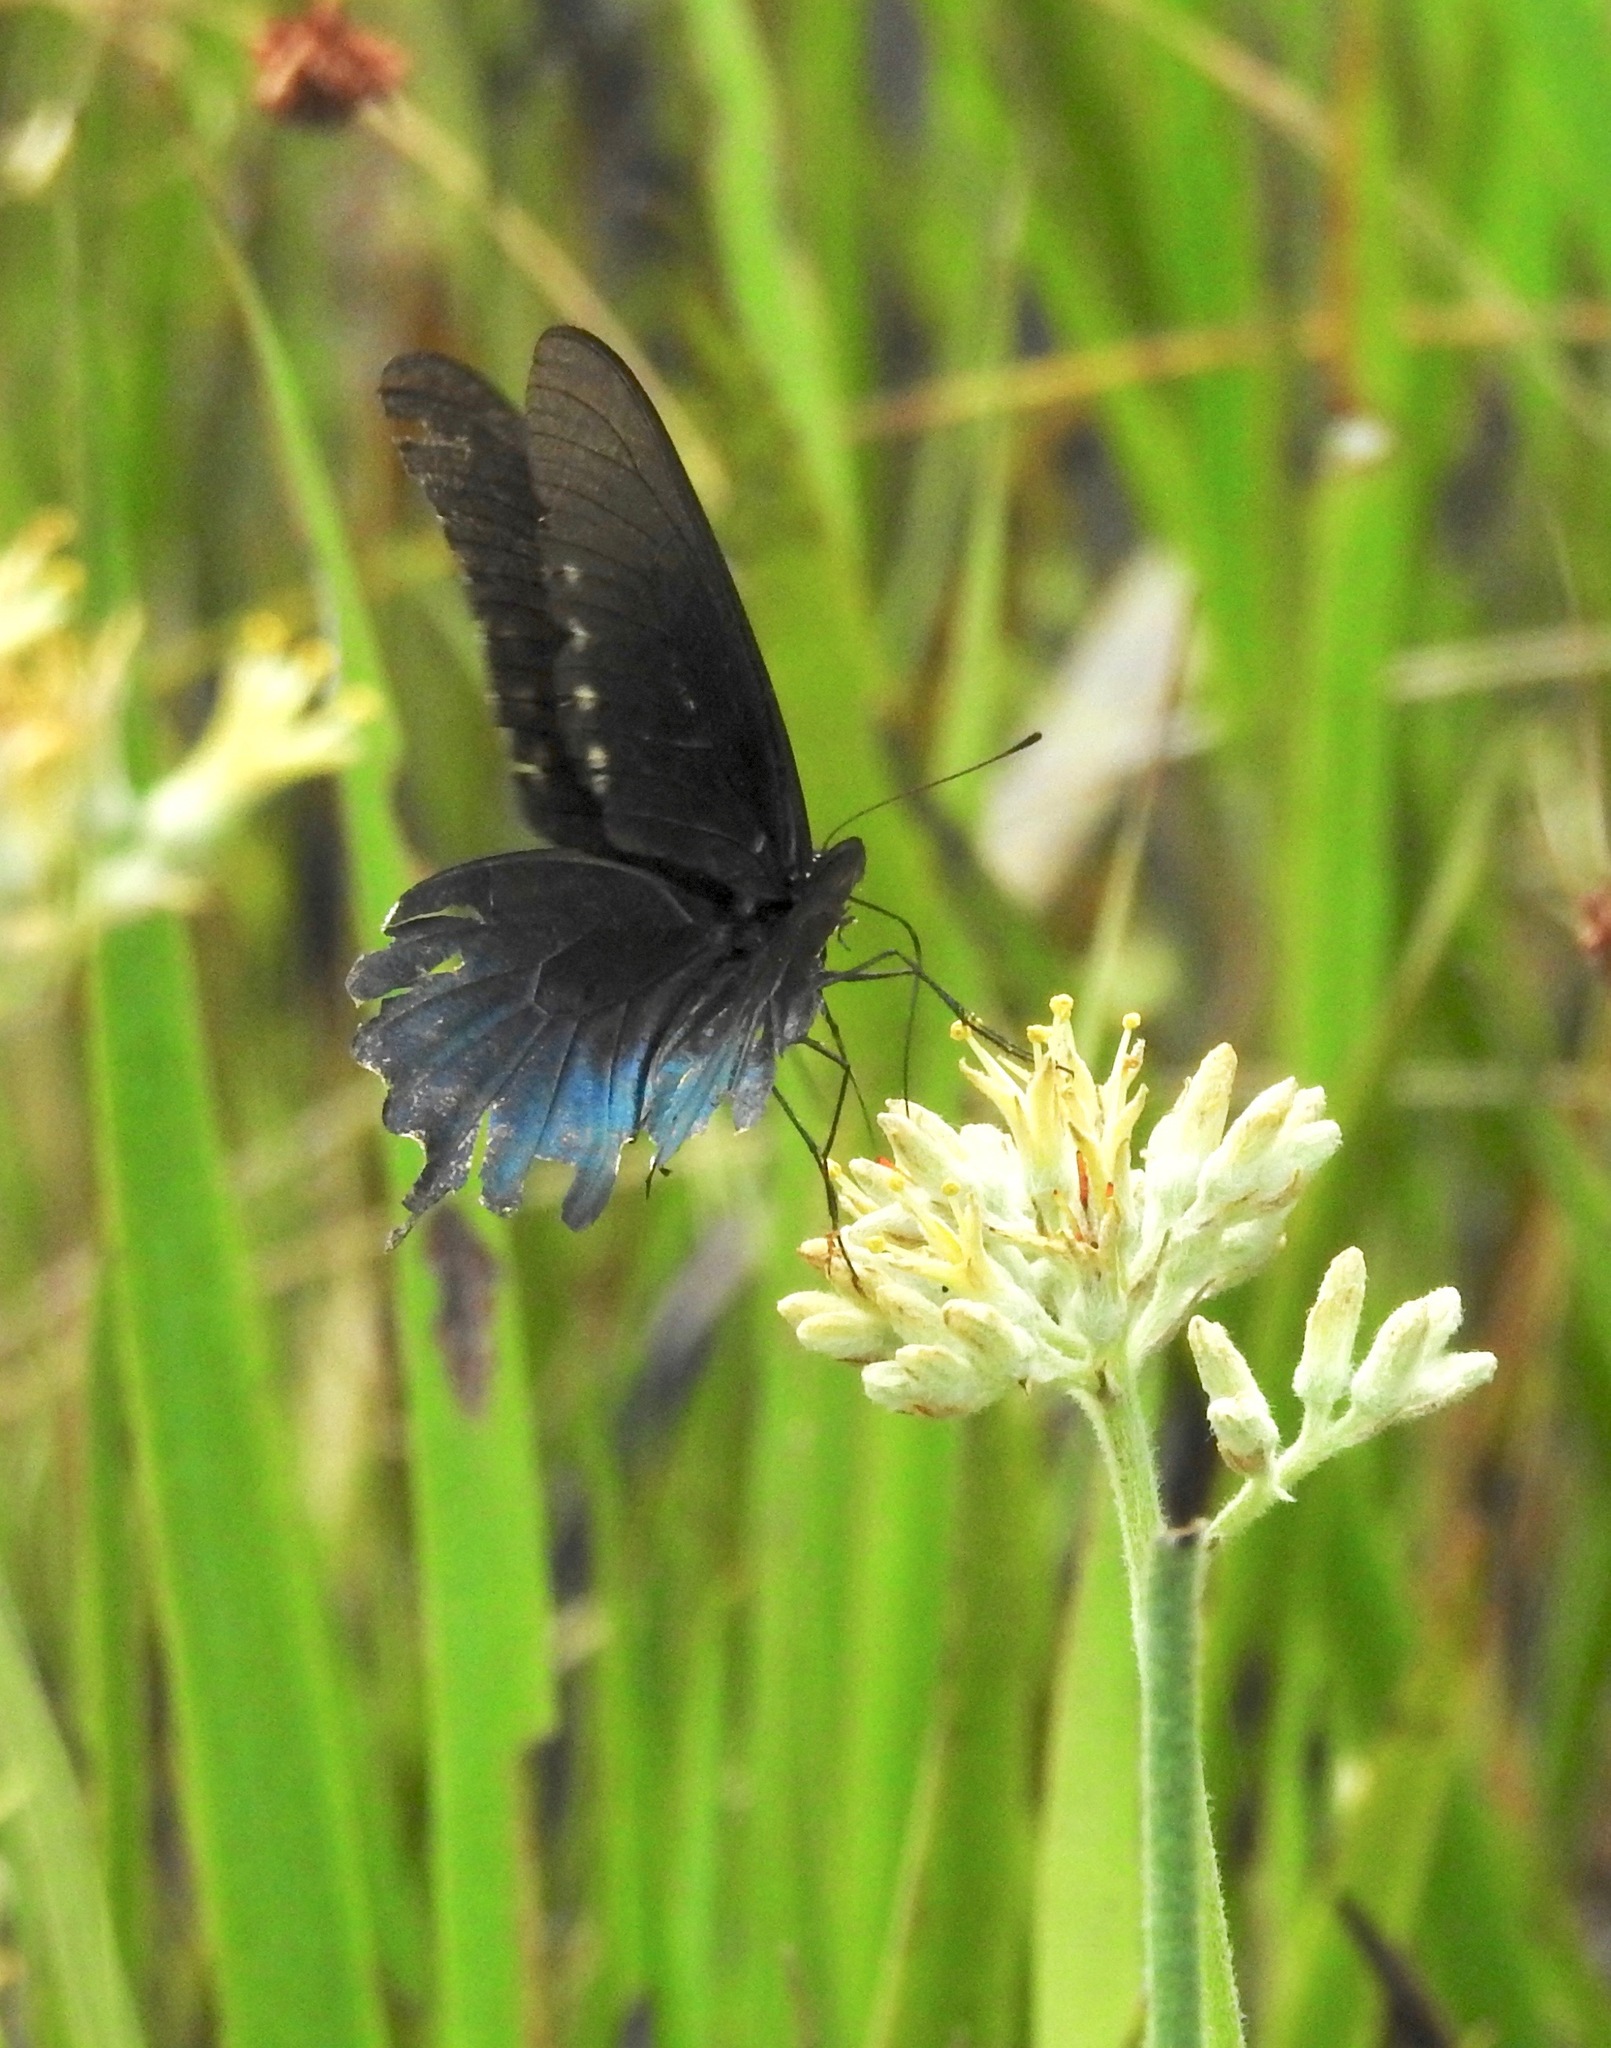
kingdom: Animalia
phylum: Arthropoda
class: Insecta
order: Lepidoptera
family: Papilionidae
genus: Battus
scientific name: Battus philenor
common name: Pipevine swallowtail
